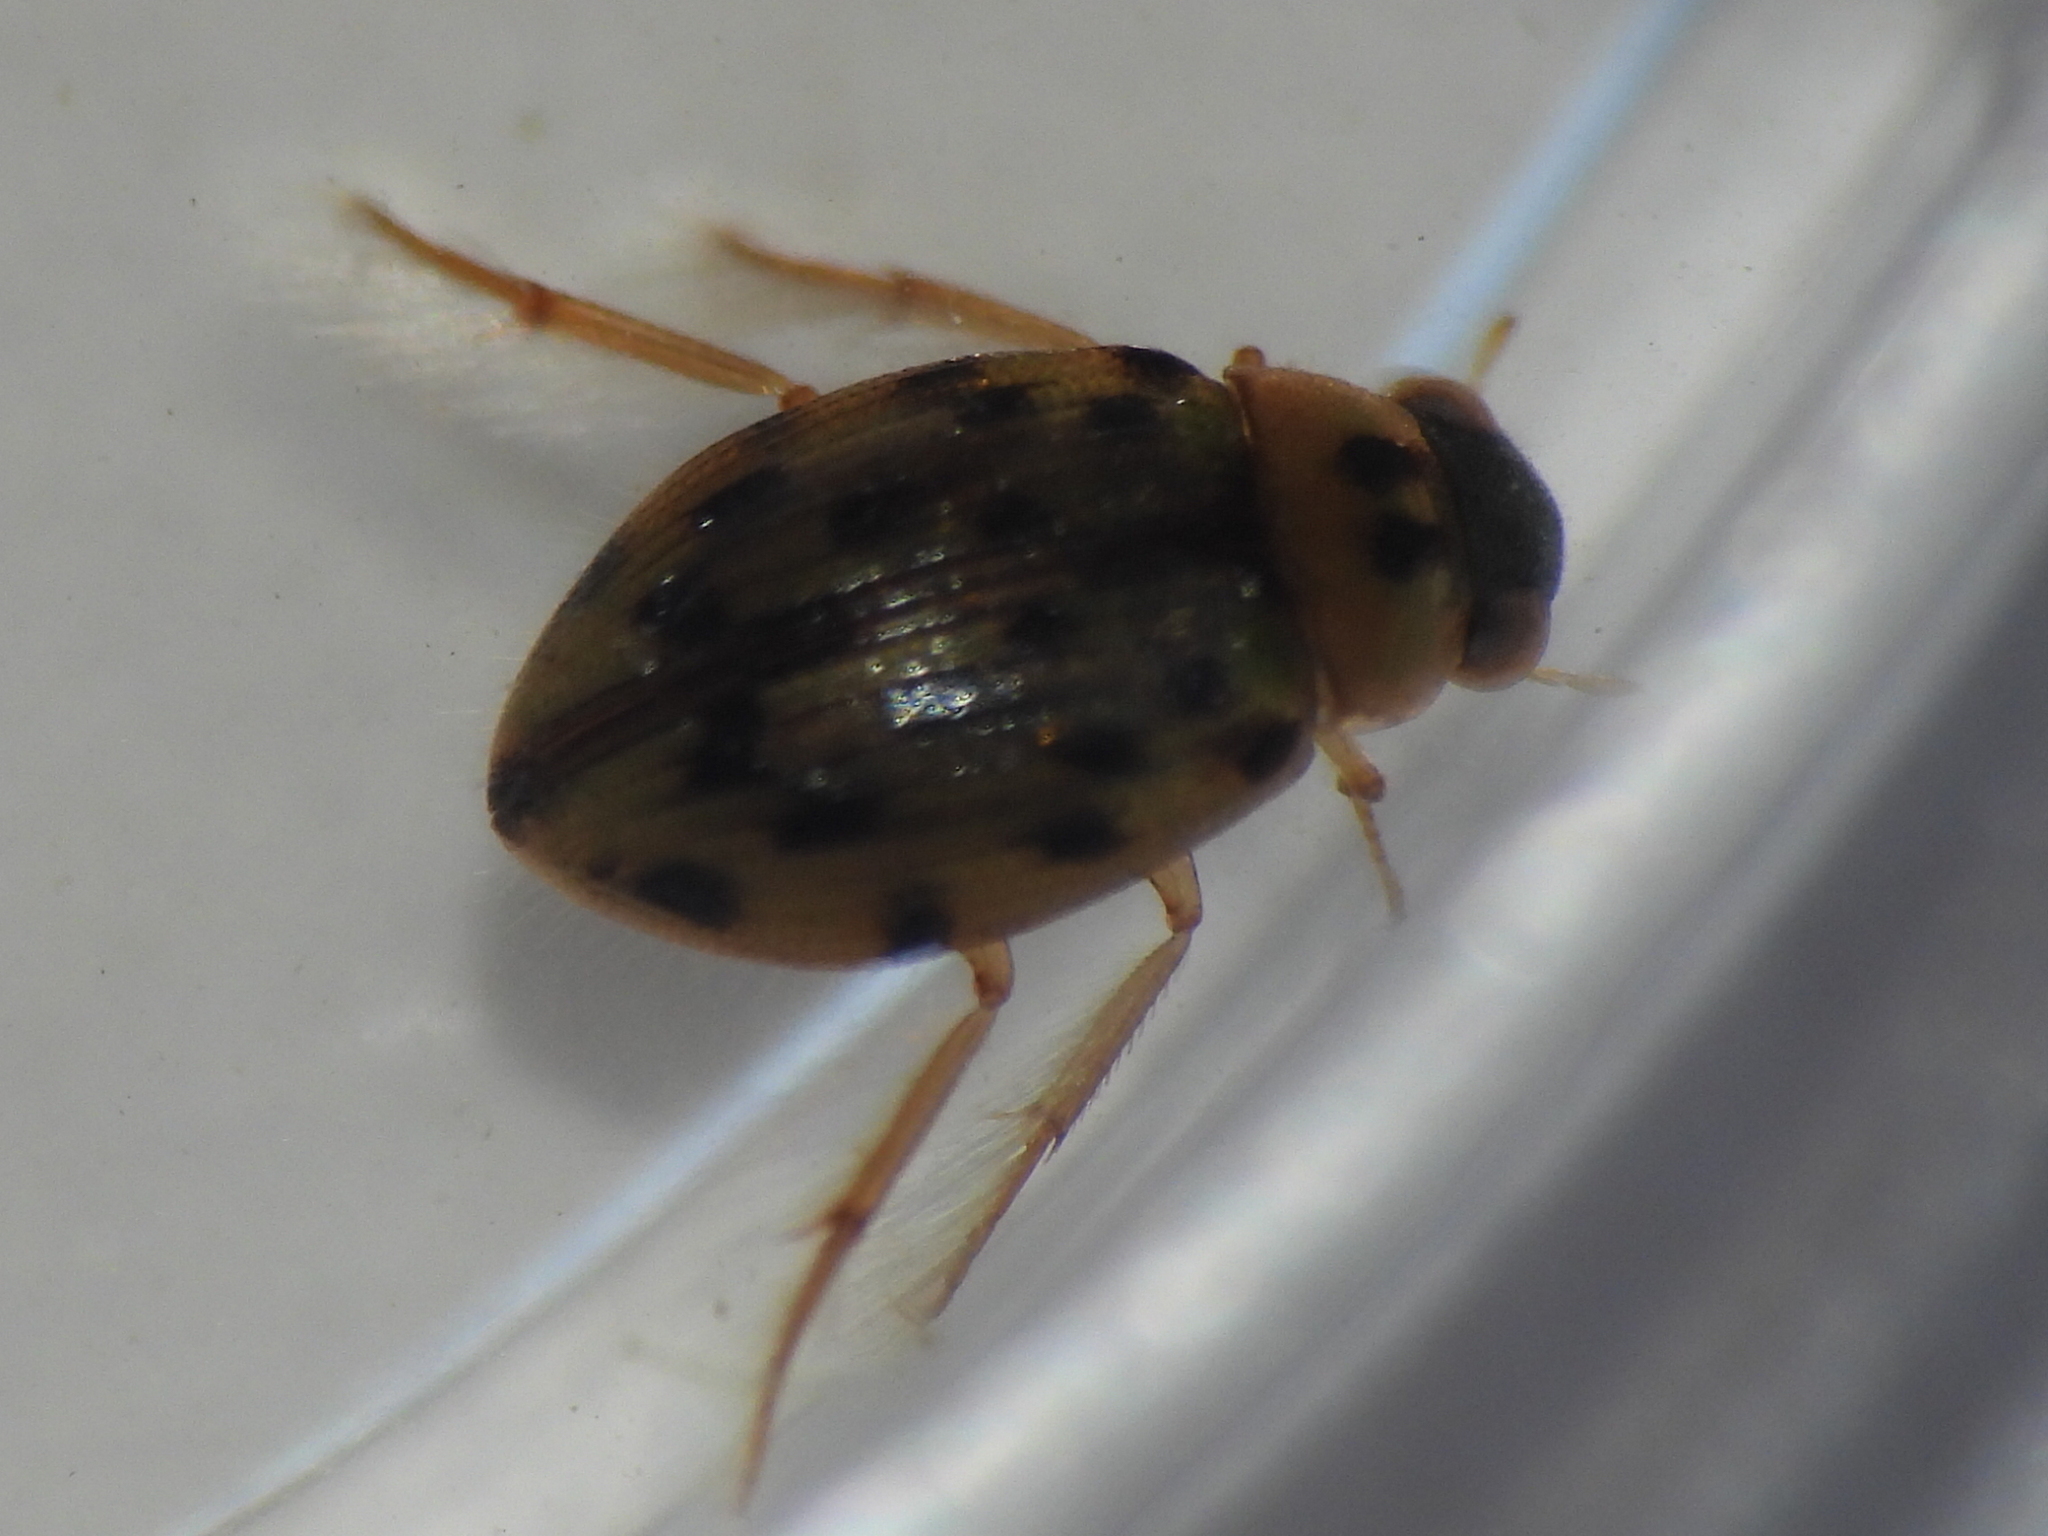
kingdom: Animalia
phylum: Arthropoda
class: Insecta
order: Coleoptera
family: Hydrophilidae
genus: Berosus
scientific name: Berosus pantherinus
